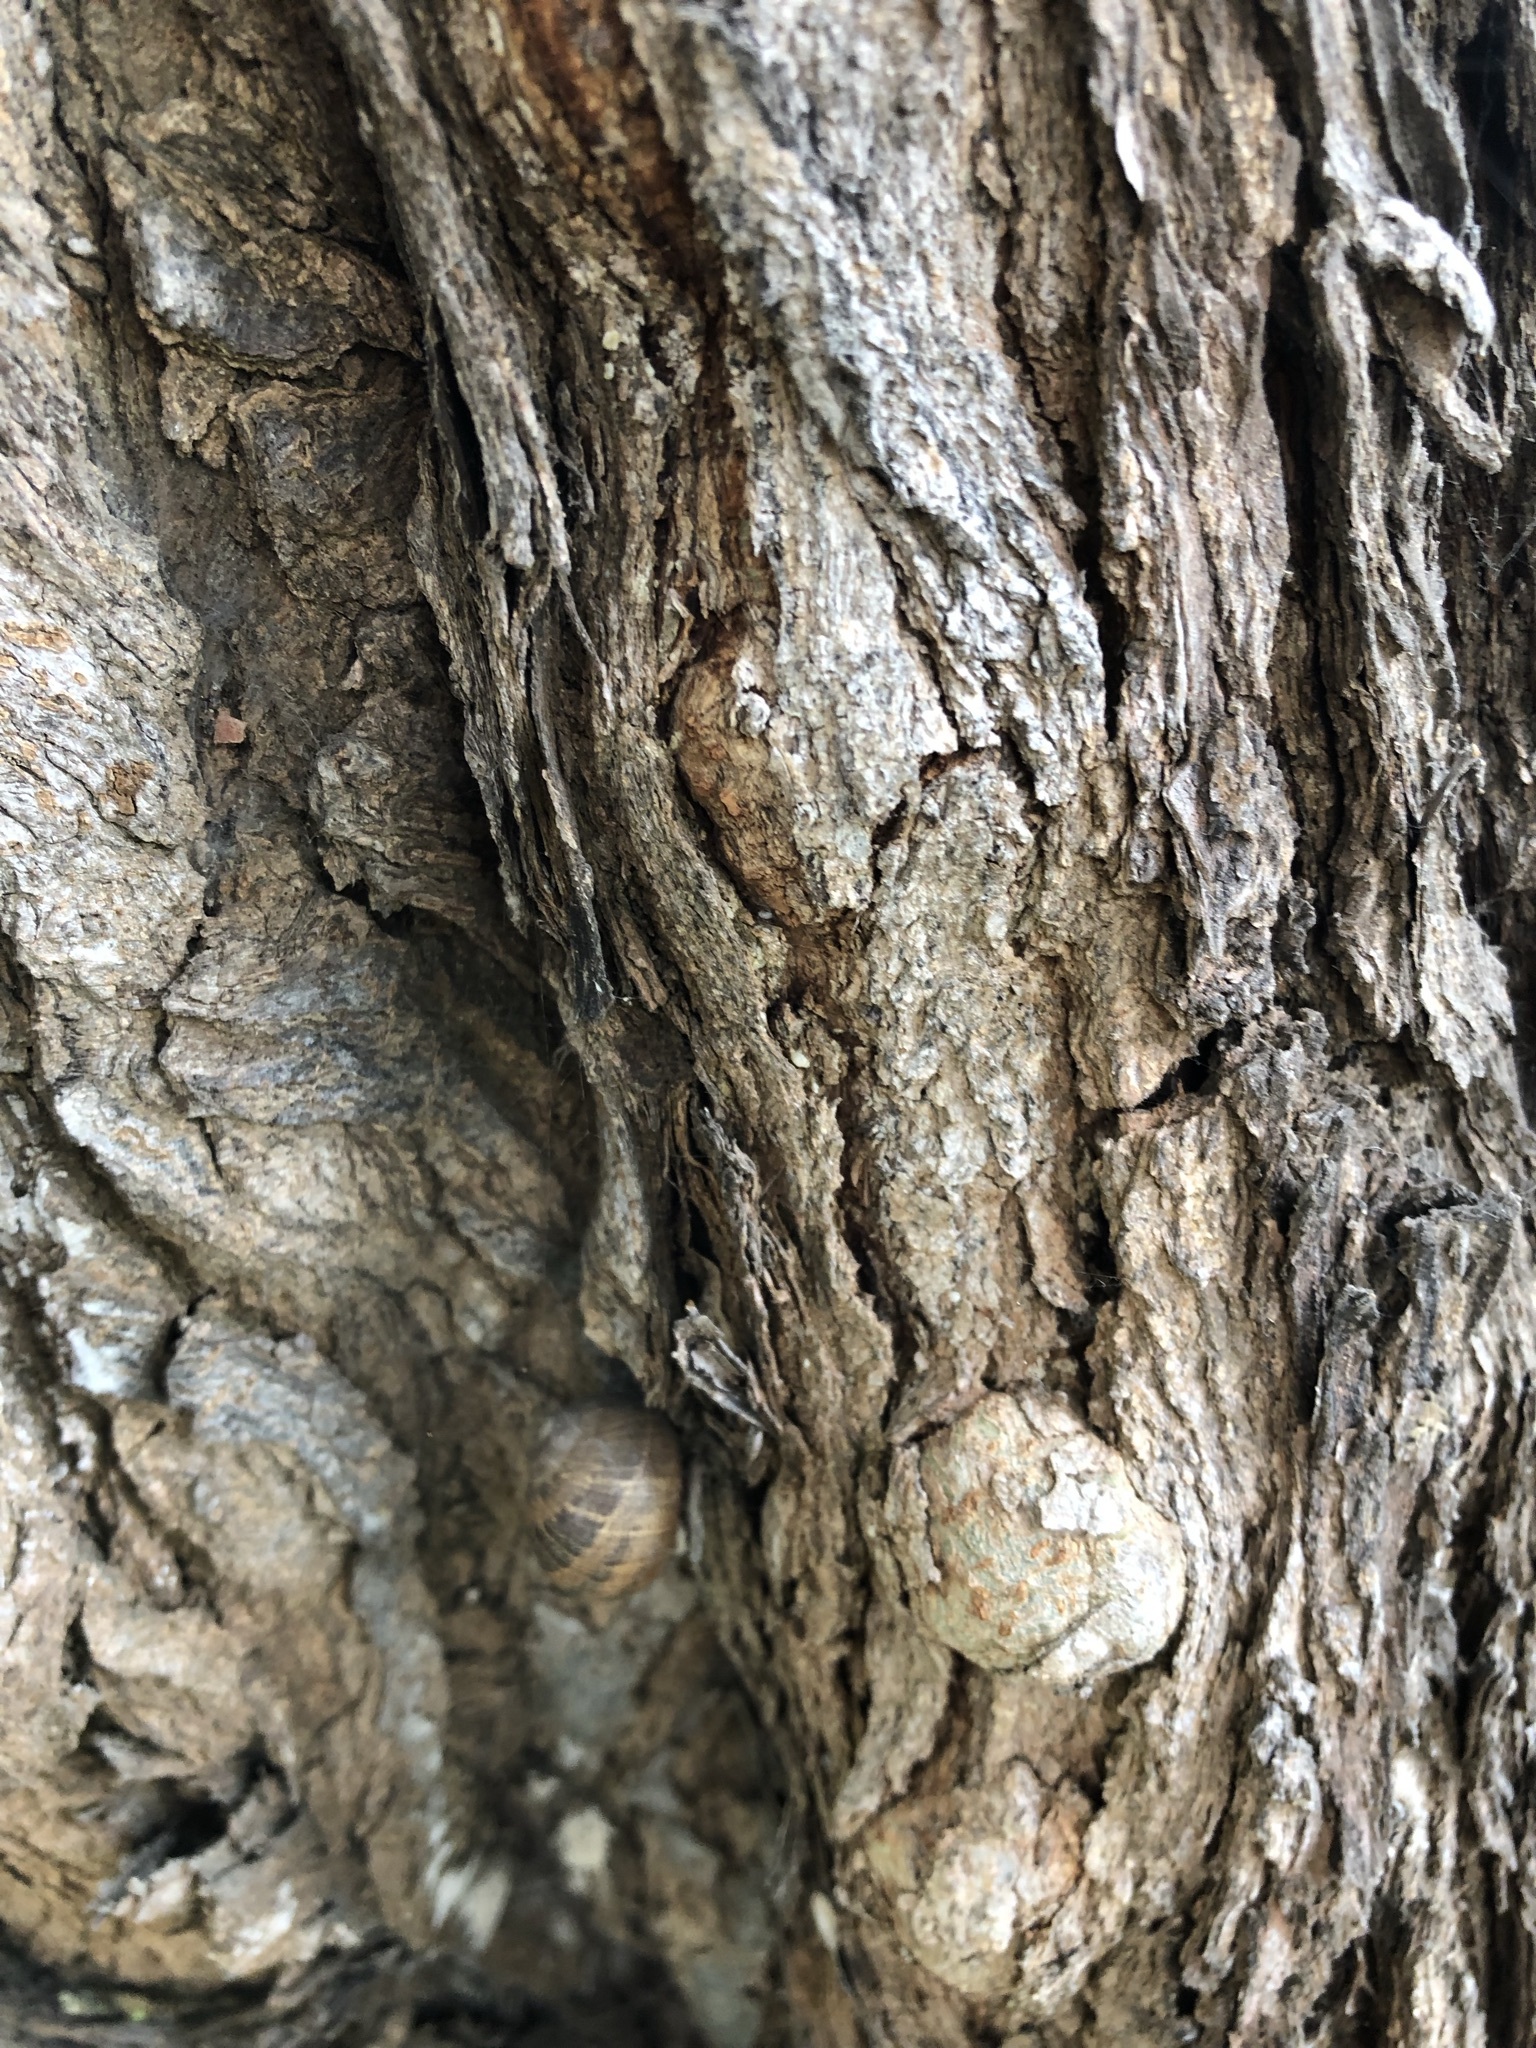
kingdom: Animalia
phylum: Mollusca
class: Gastropoda
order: Stylommatophora
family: Helicidae
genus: Cornu
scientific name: Cornu aspersum
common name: Brown garden snail
